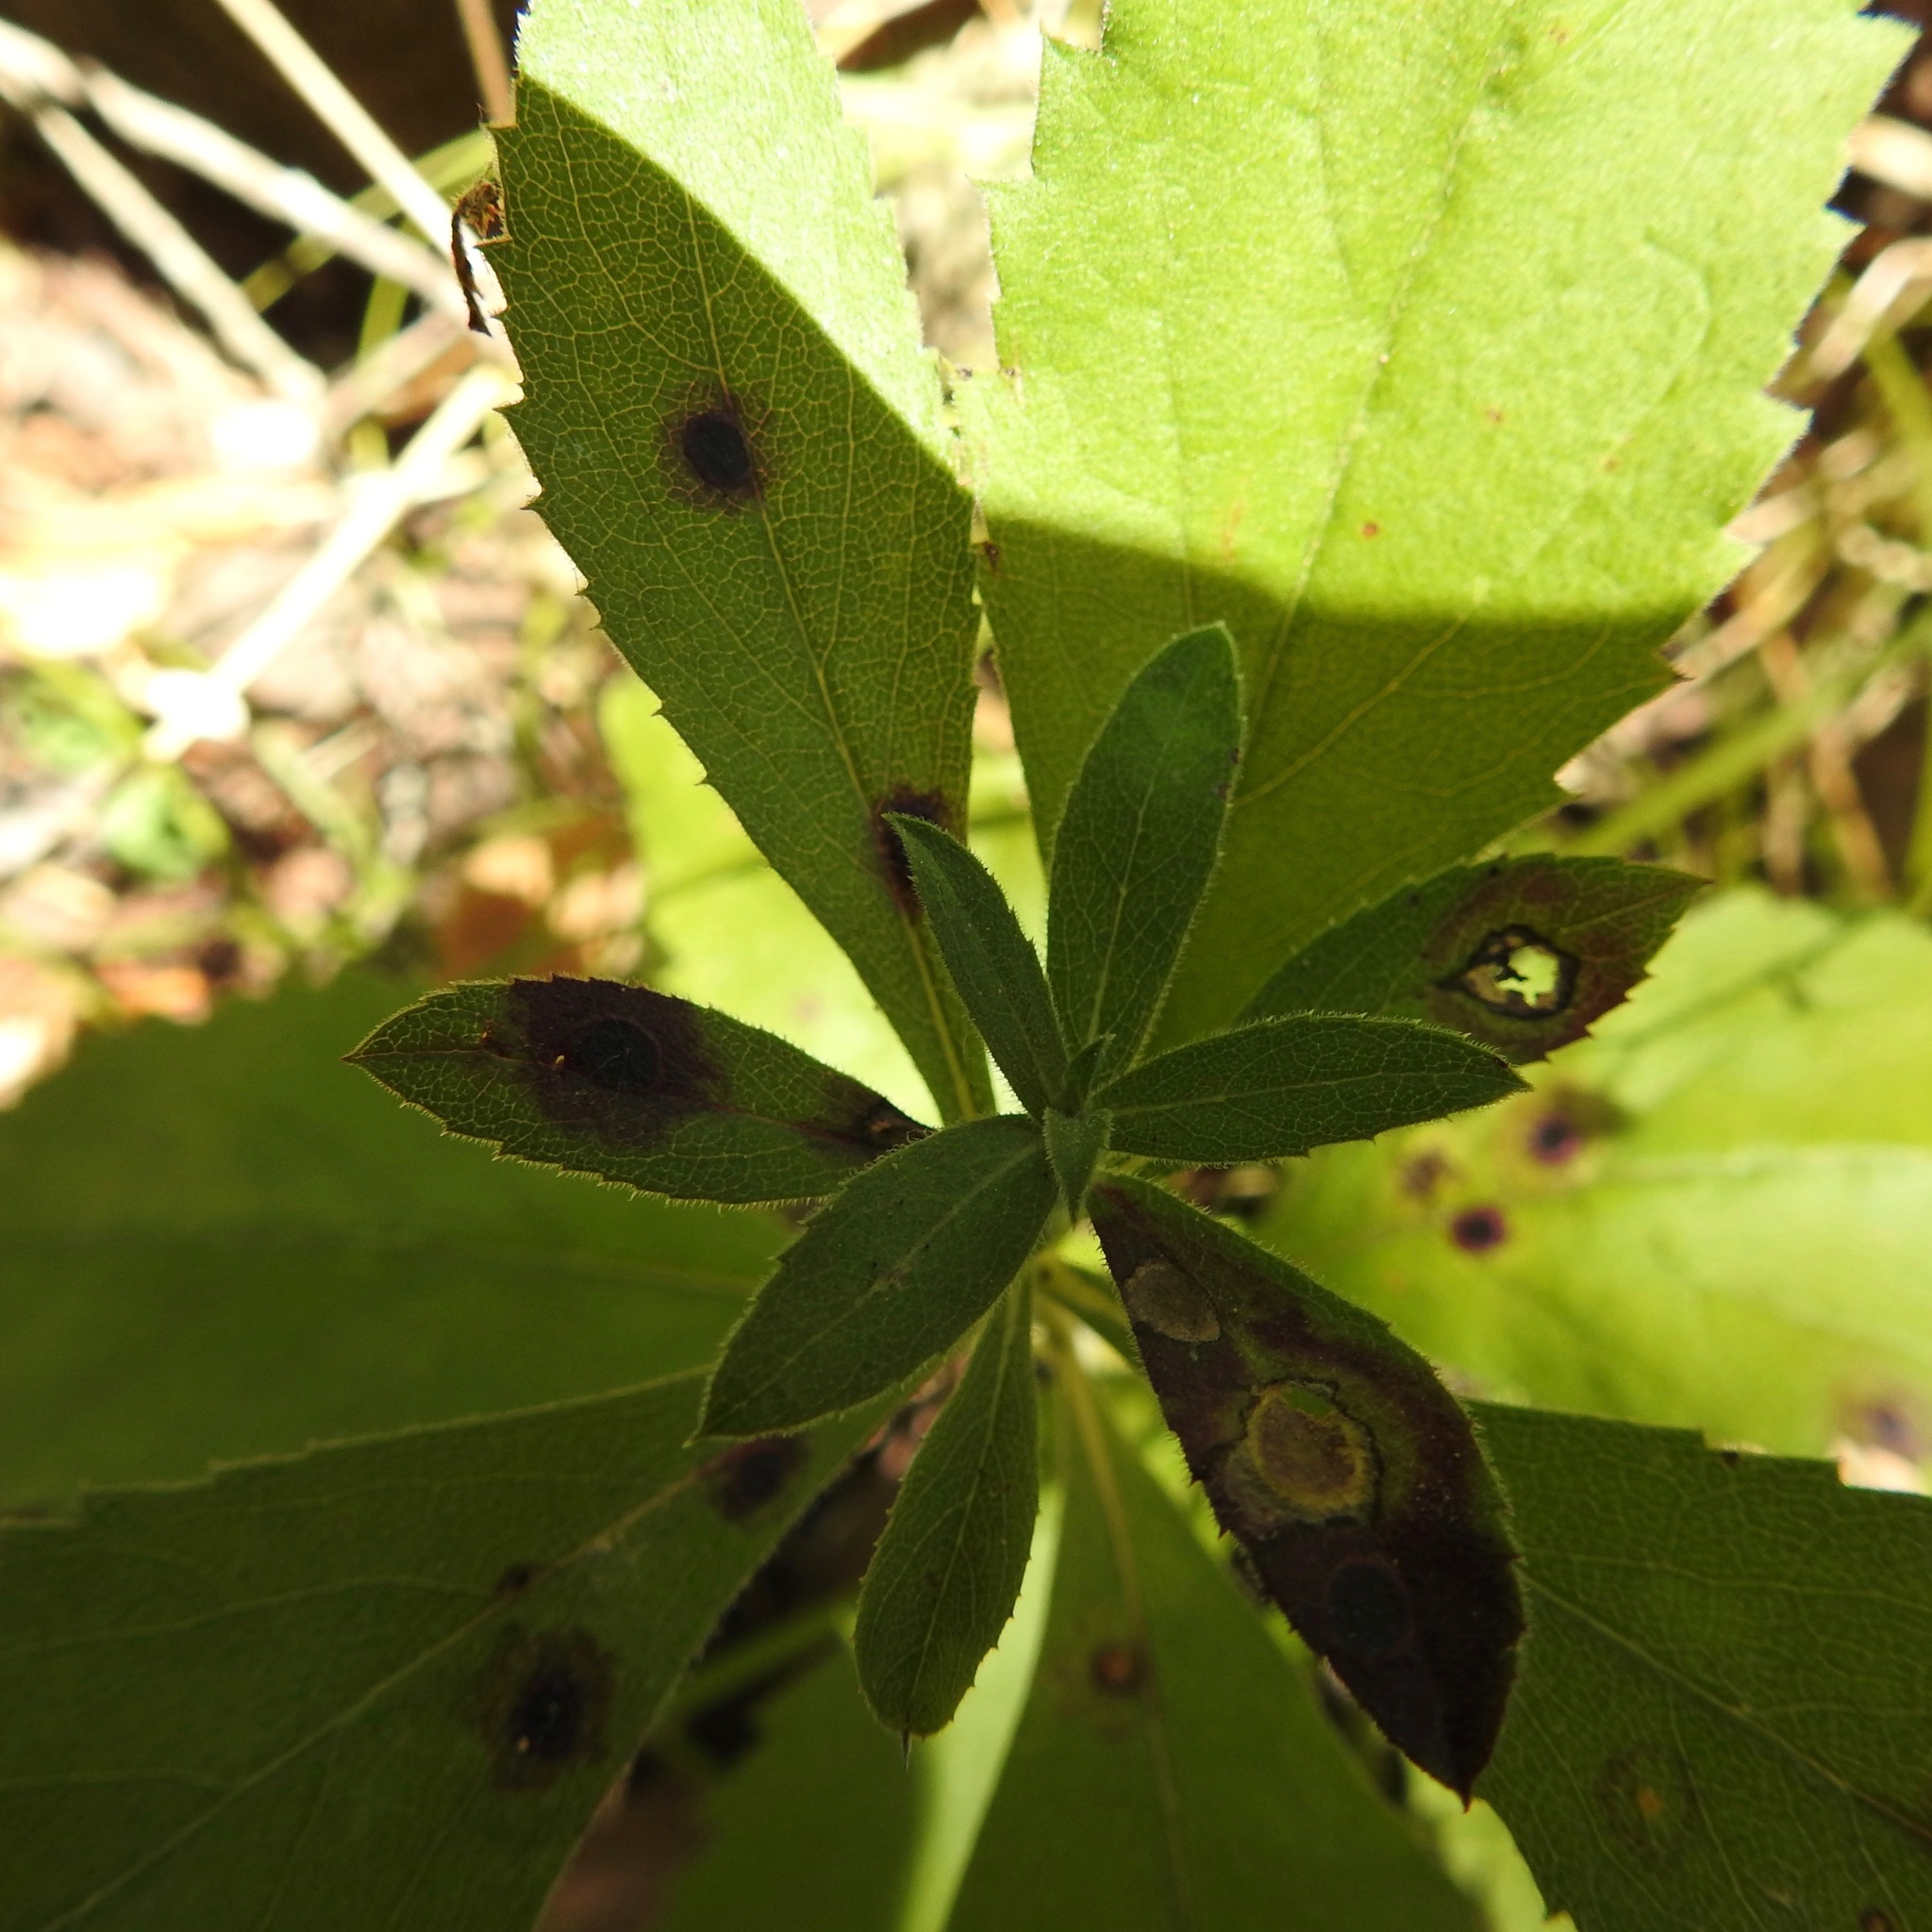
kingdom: Plantae
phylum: Tracheophyta
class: Magnoliopsida
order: Asterales
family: Asteraceae
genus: Eurybia
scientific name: Eurybia radulina
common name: Rough-leaved aster
